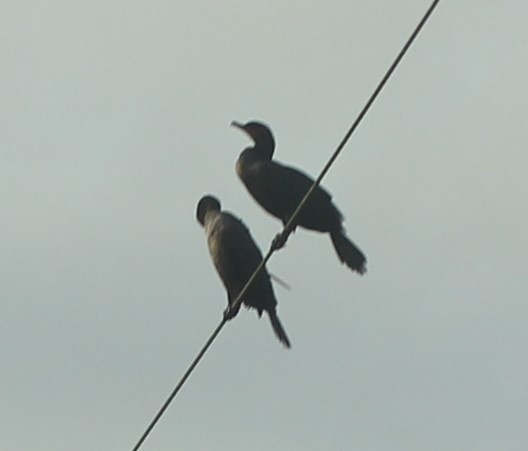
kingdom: Animalia
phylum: Chordata
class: Aves
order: Suliformes
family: Phalacrocoracidae
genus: Phalacrocorax
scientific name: Phalacrocorax auritus
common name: Double-crested cormorant
